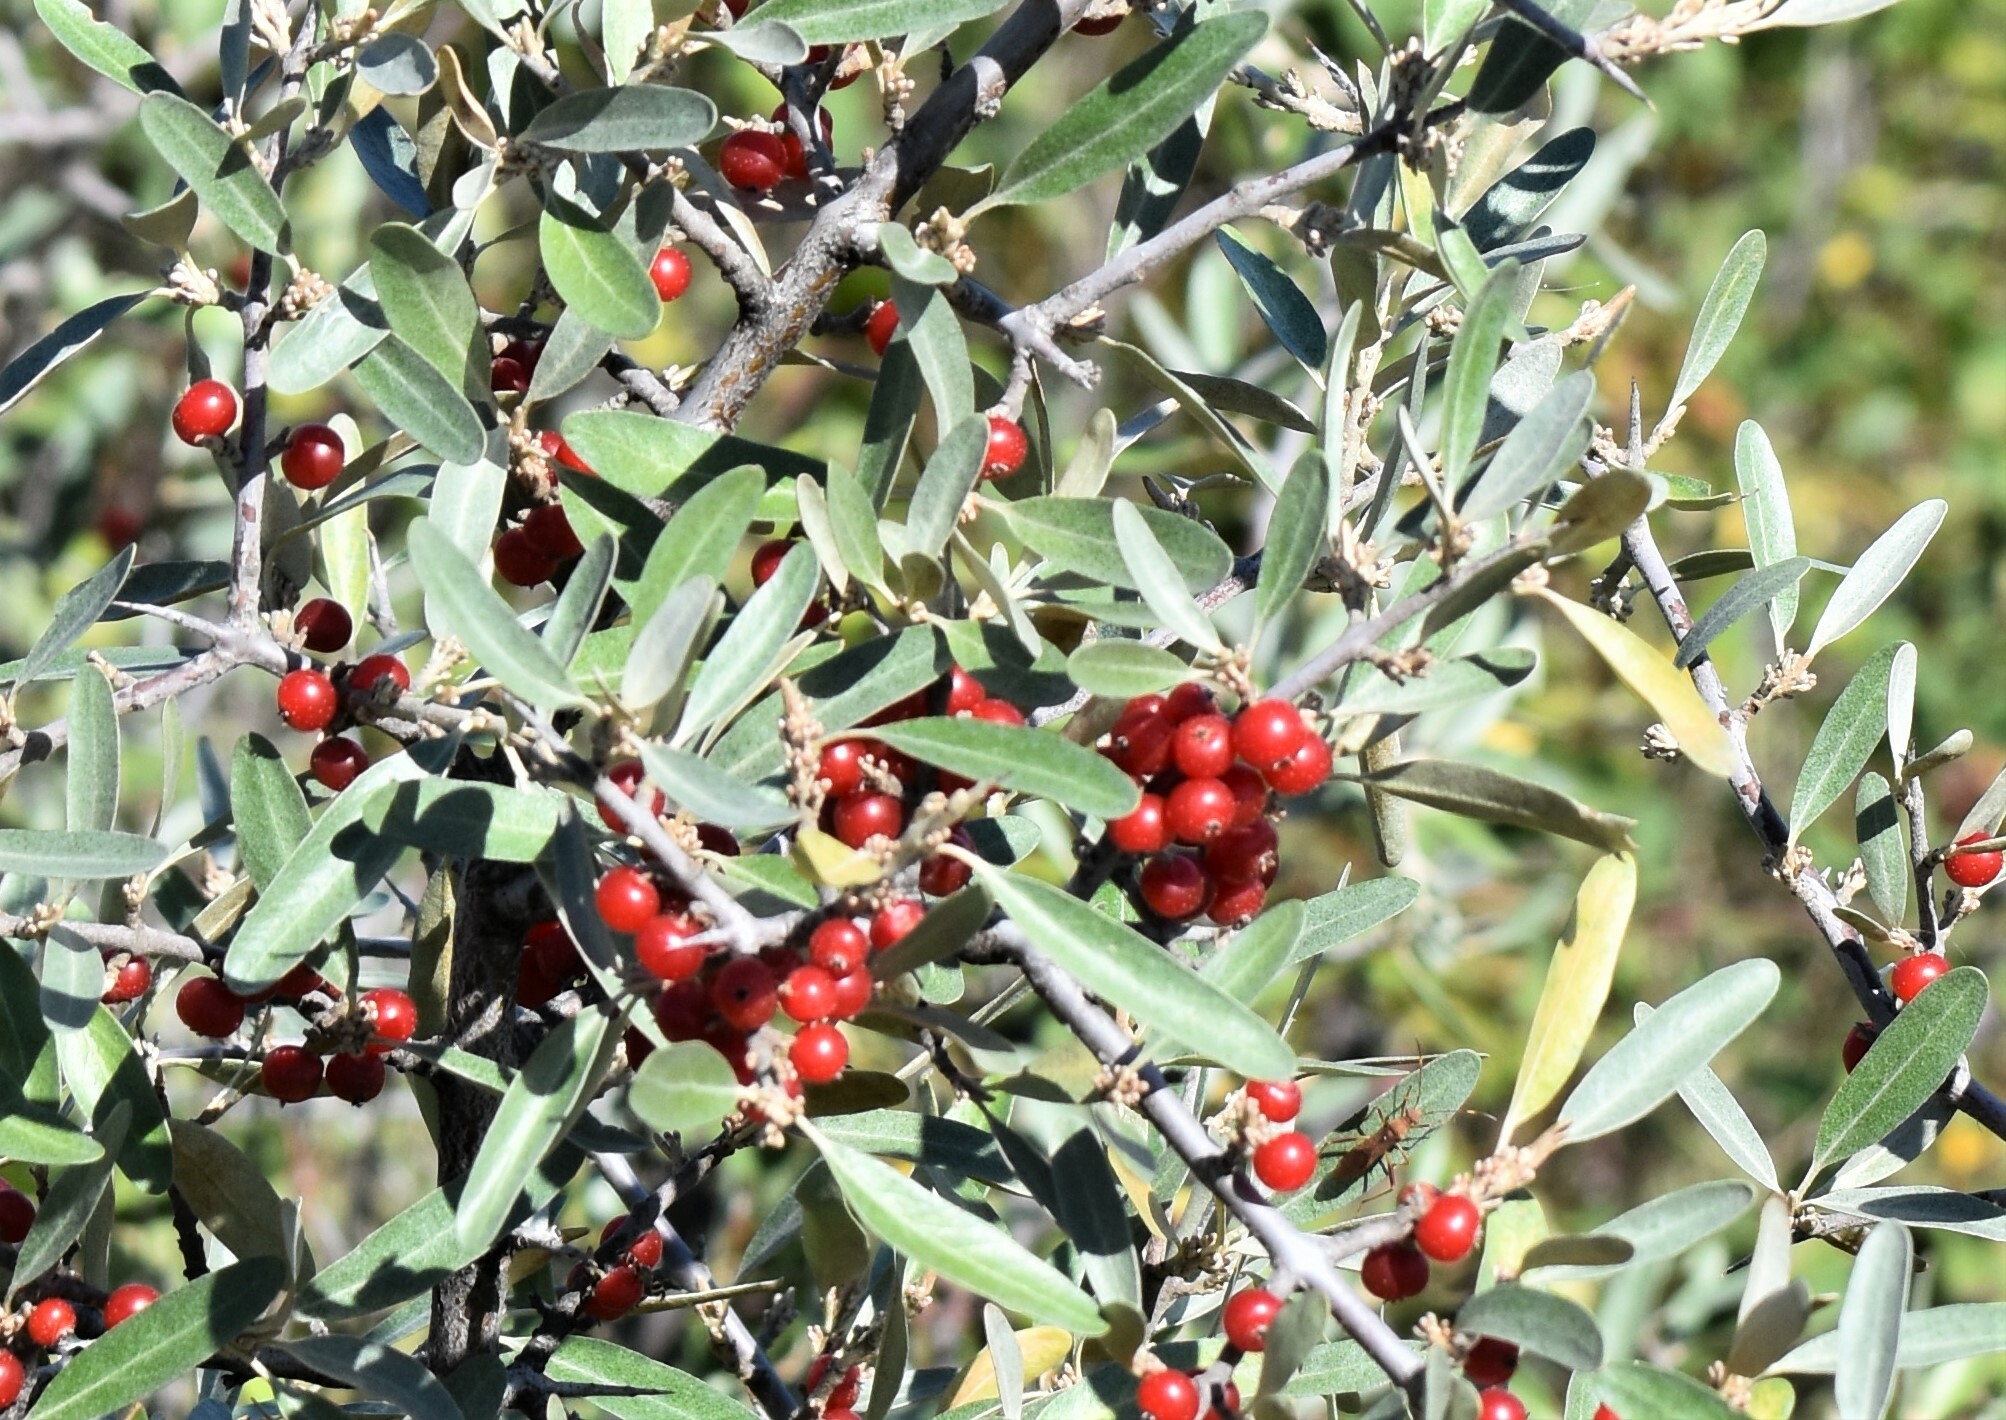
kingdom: Plantae
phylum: Tracheophyta
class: Magnoliopsida
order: Rosales
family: Elaeagnaceae
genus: Shepherdia
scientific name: Shepherdia argentea
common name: Silver buffaloberry
